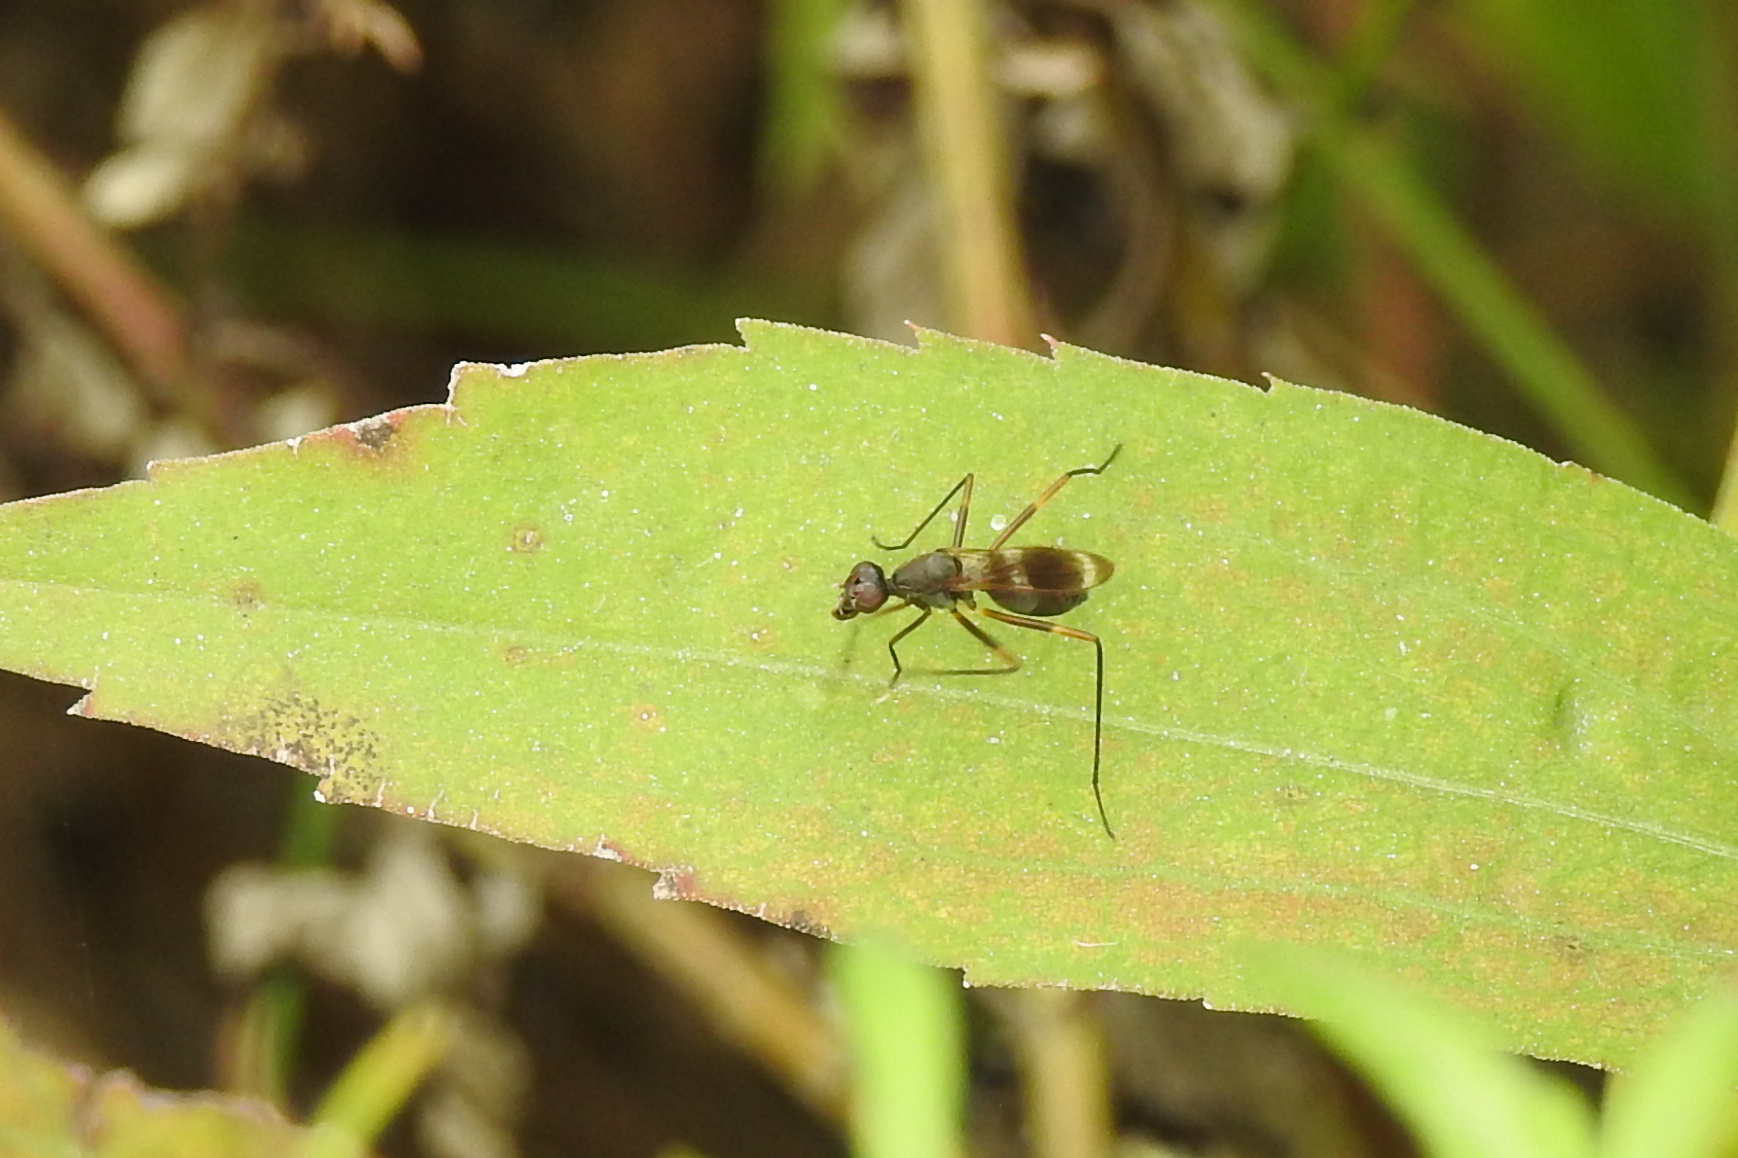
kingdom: Animalia
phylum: Arthropoda
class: Insecta
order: Diptera
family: Micropezidae
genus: Taeniaptera
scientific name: Taeniaptera trivittata
